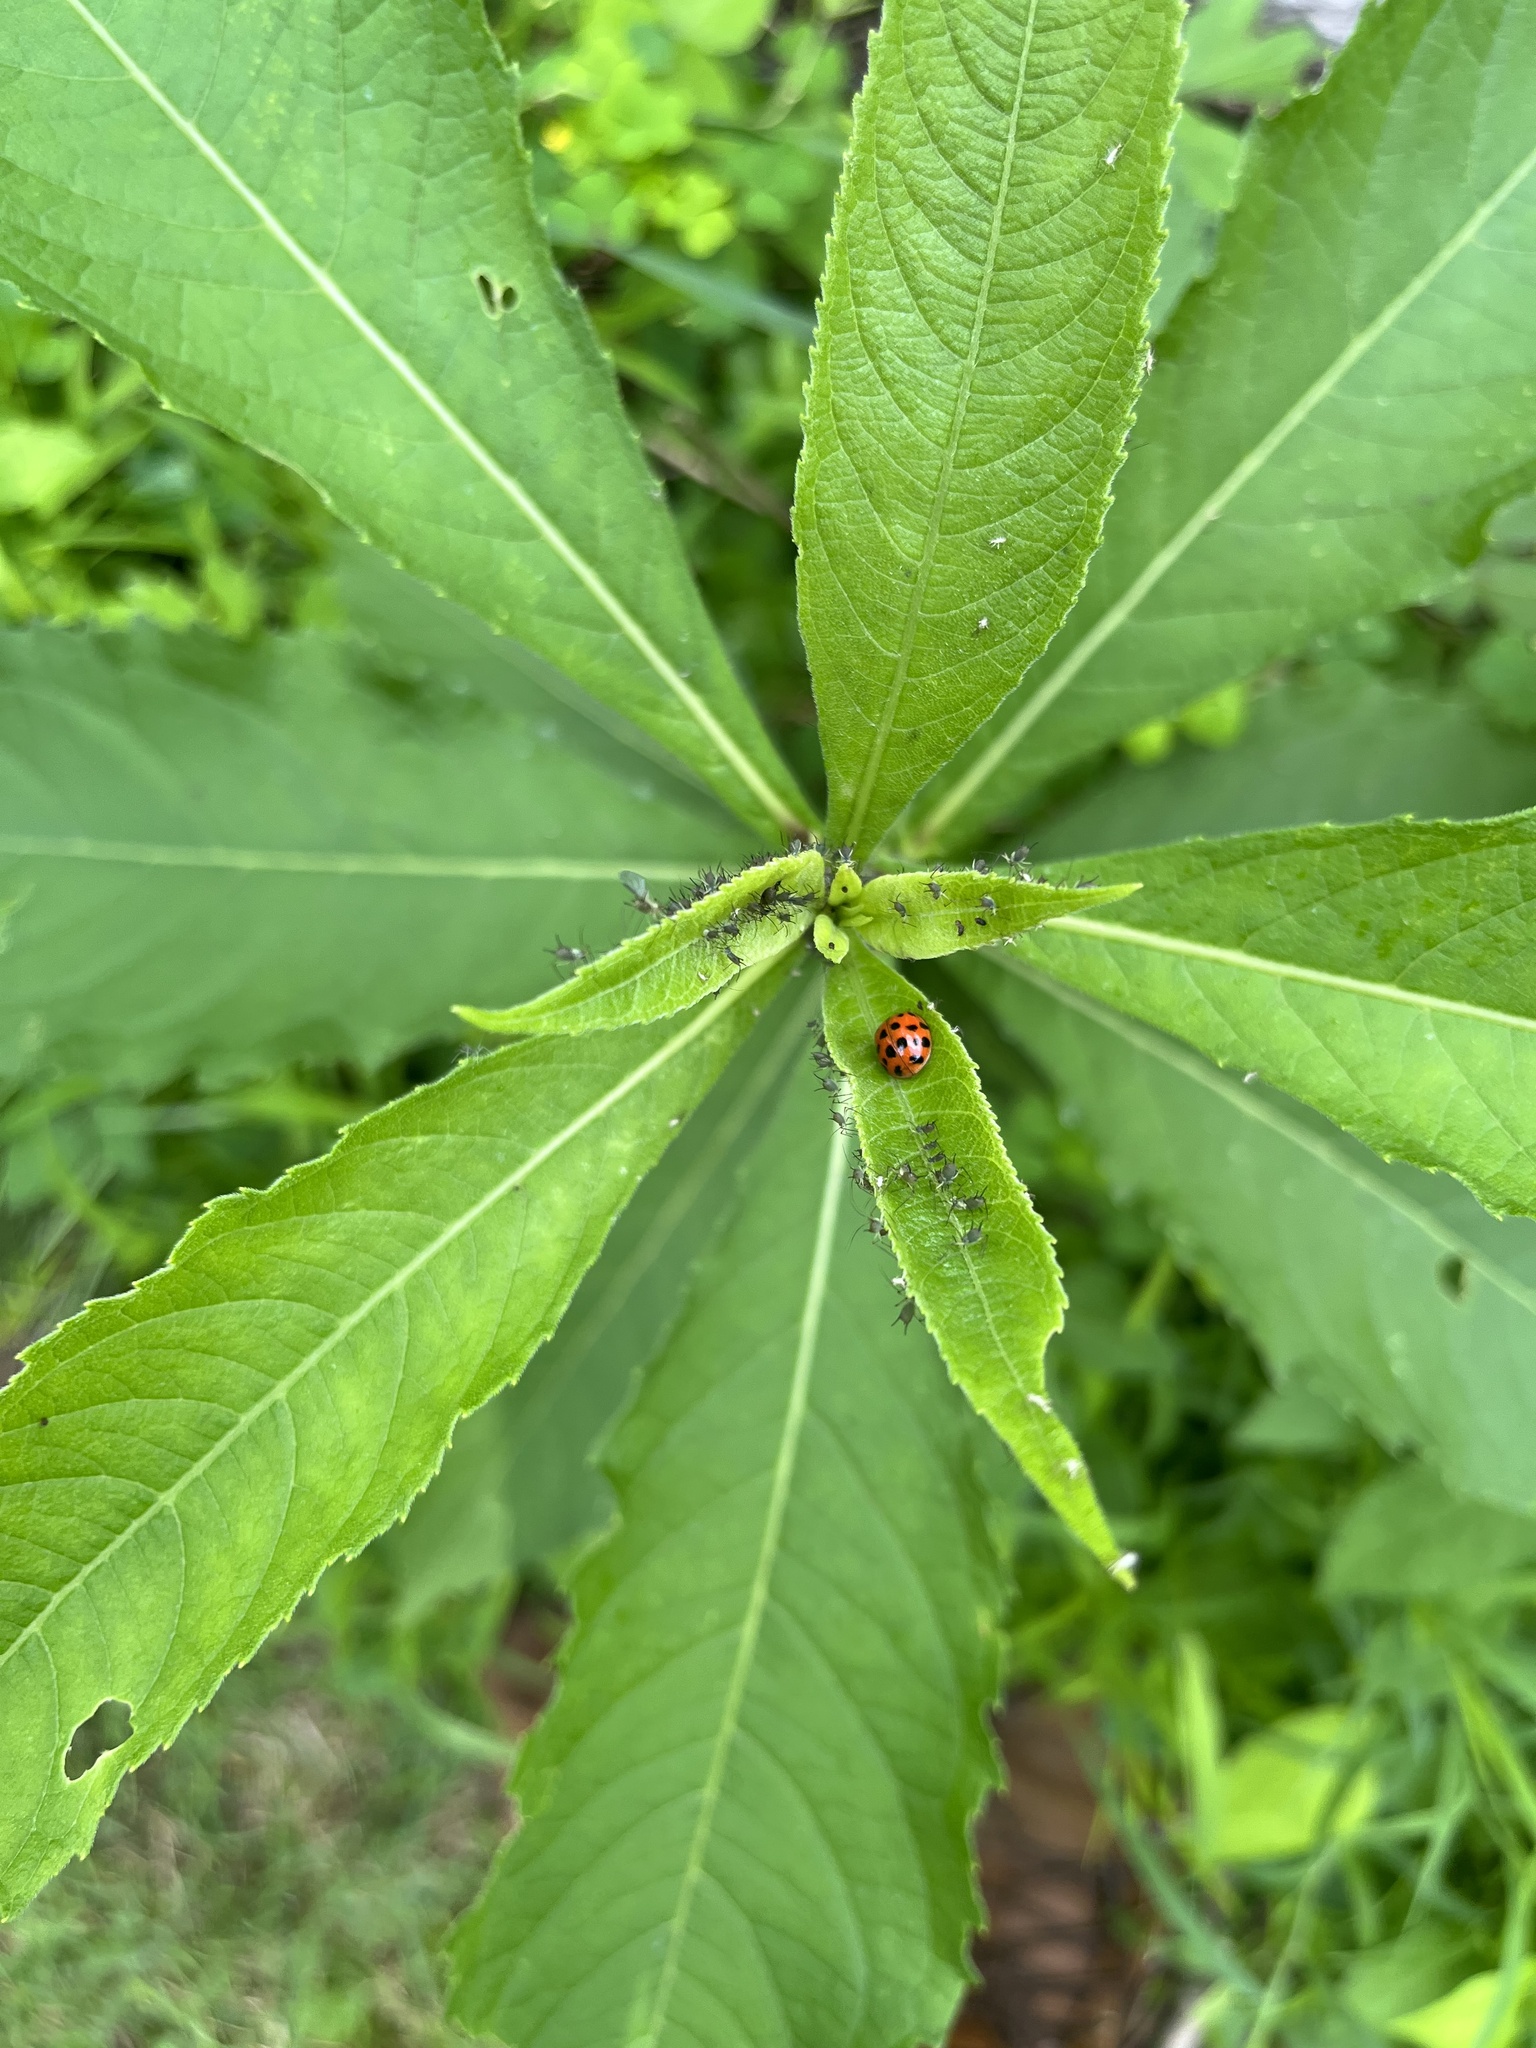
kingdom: Animalia
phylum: Arthropoda
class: Insecta
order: Coleoptera
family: Coccinellidae
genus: Harmonia
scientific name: Harmonia axyridis
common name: Harlequin ladybird
